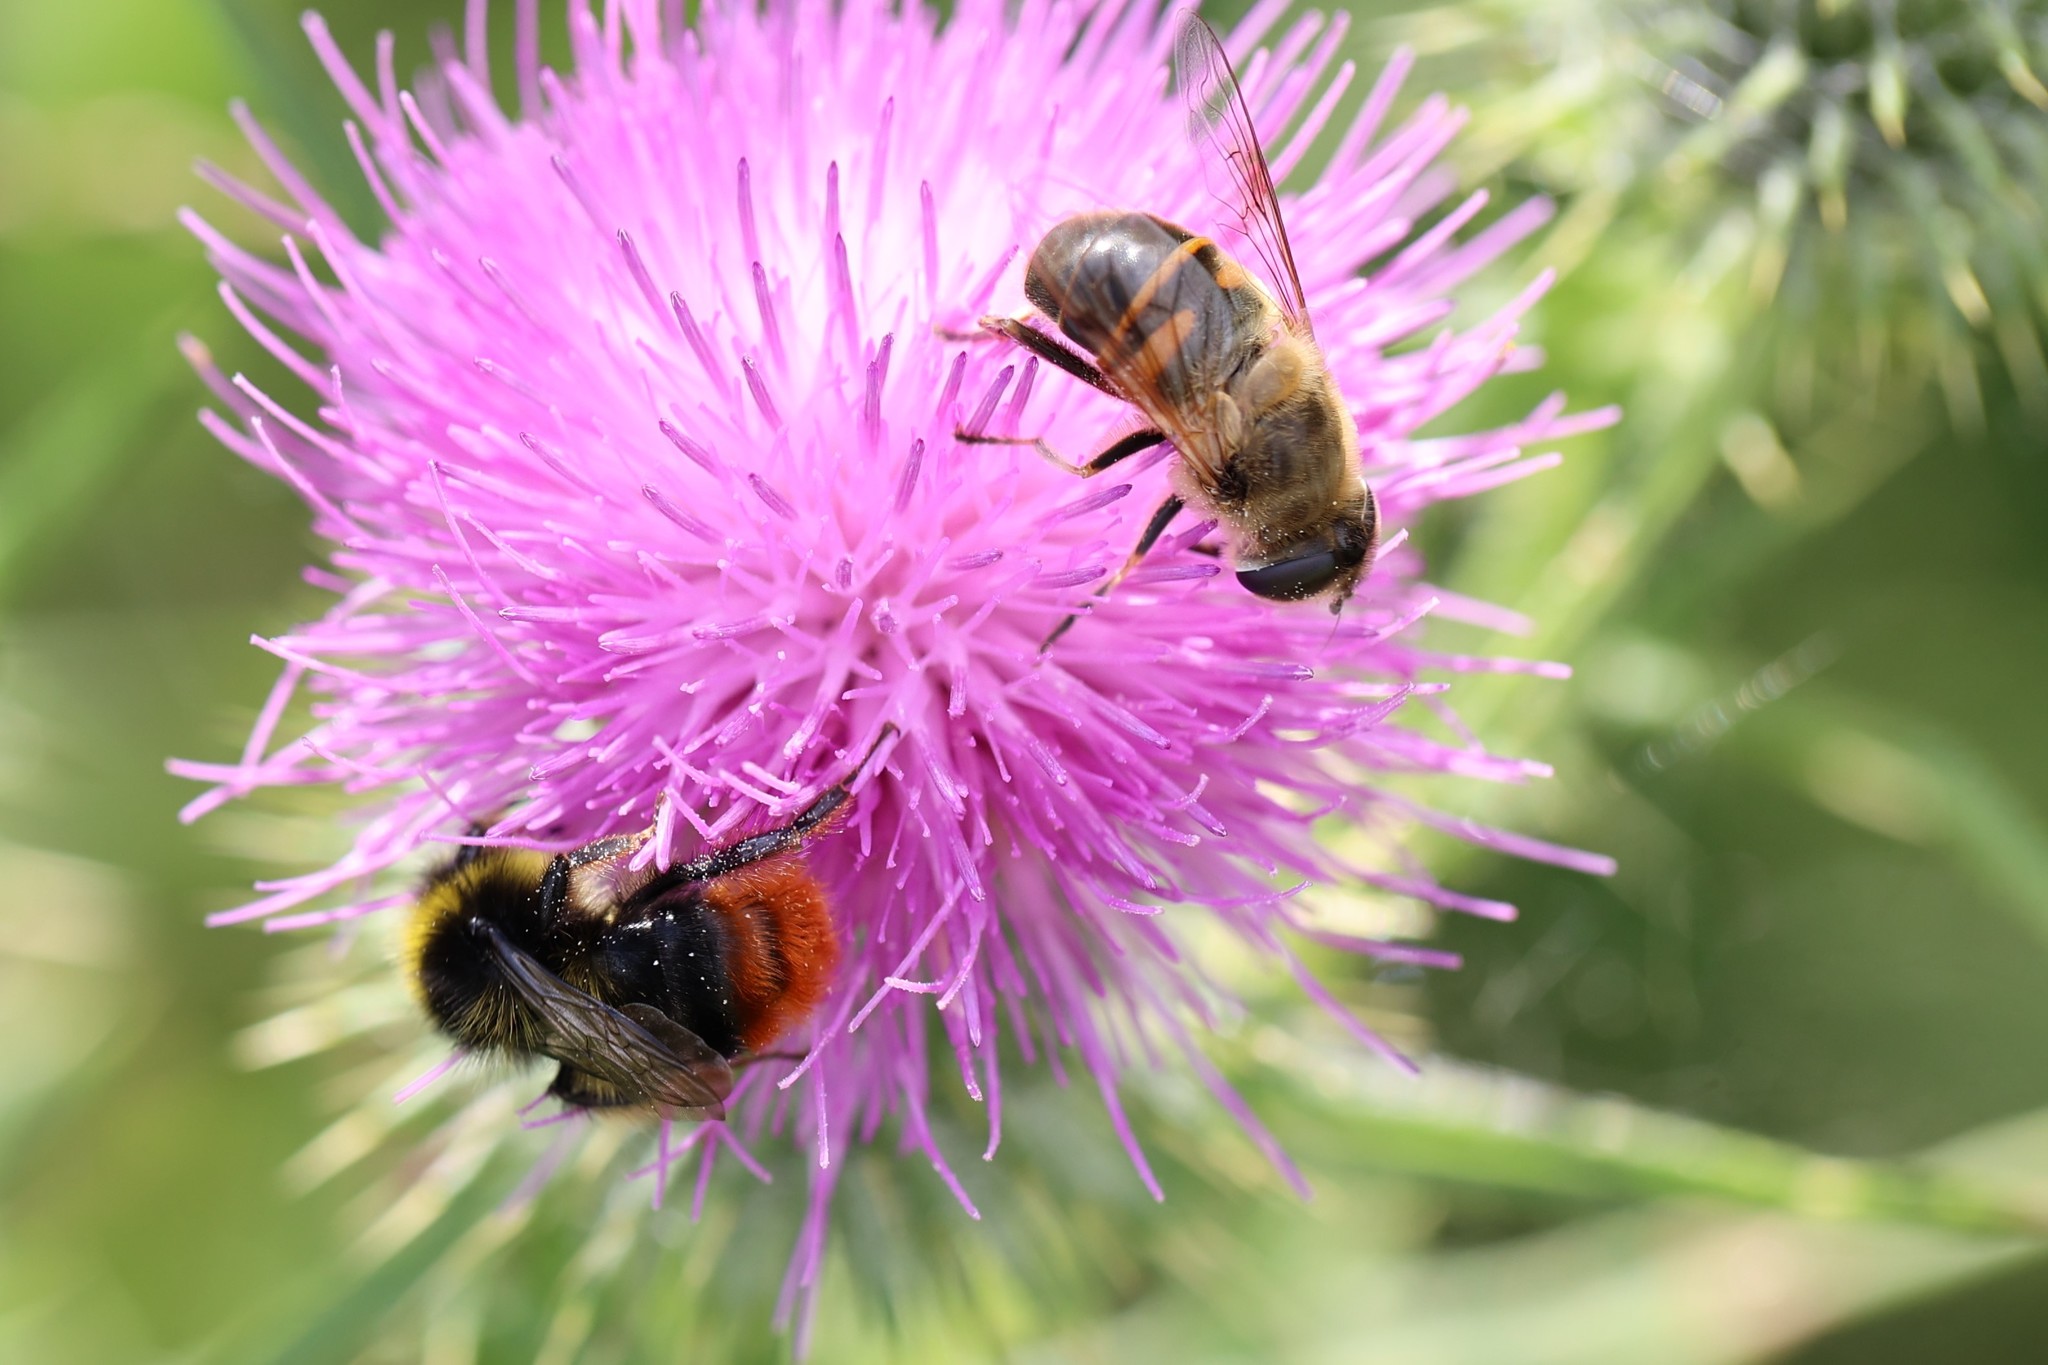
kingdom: Animalia
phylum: Arthropoda
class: Insecta
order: Diptera
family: Syrphidae
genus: Eristalis
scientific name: Eristalis tenax
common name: Drone fly
